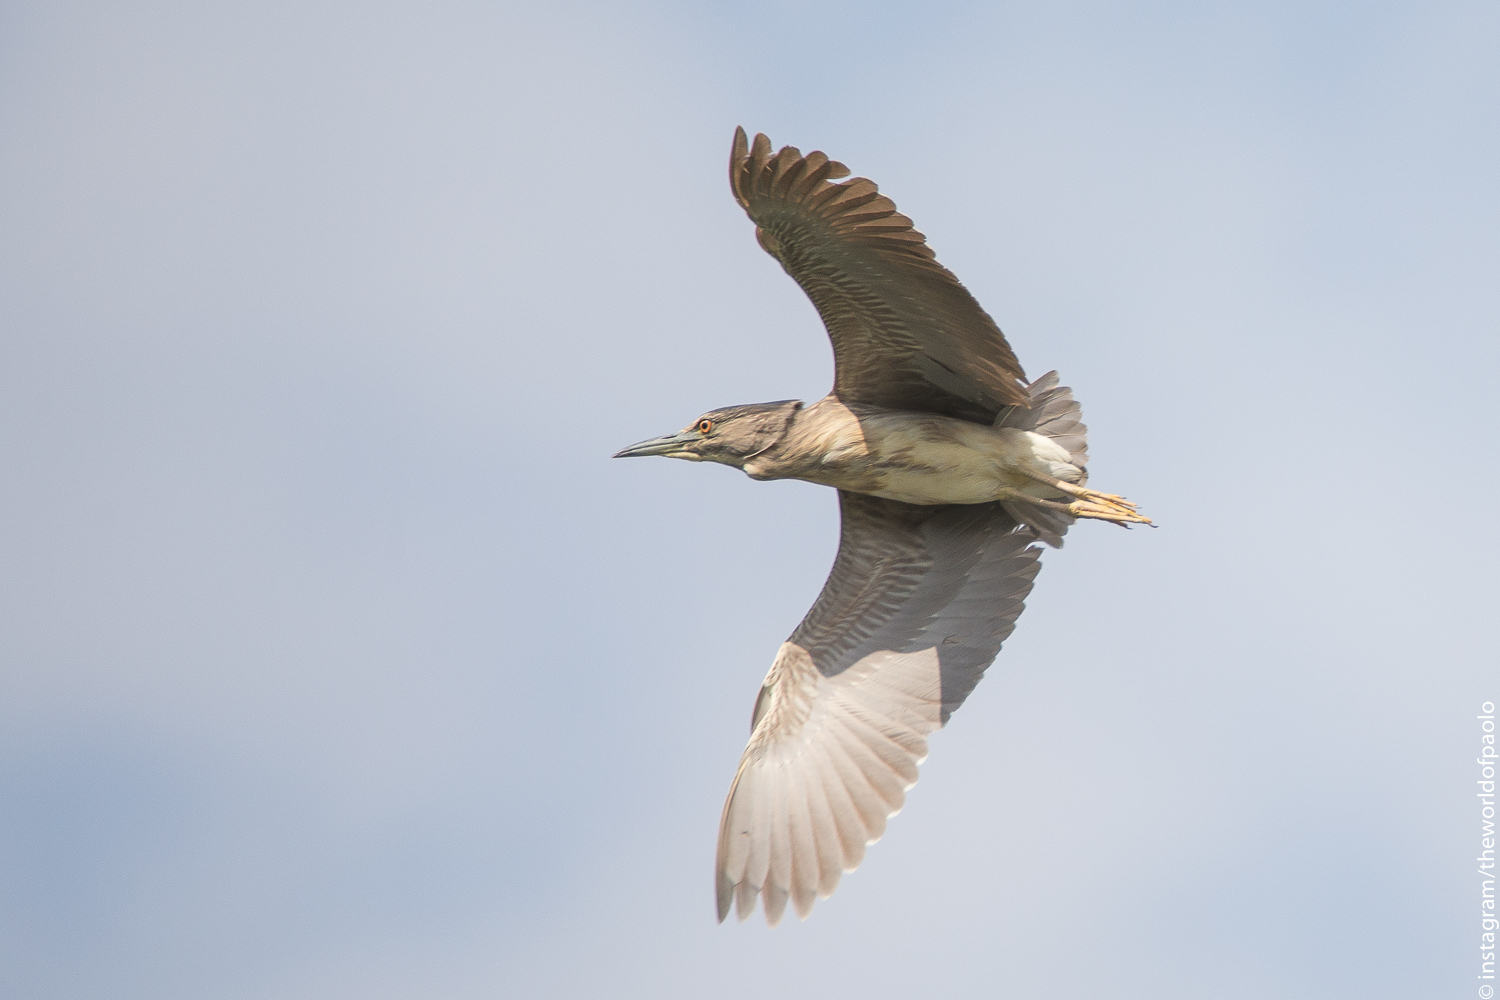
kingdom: Animalia
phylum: Chordata
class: Aves
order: Pelecaniformes
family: Ardeidae
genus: Nycticorax
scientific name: Nycticorax nycticorax
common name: Black-crowned night heron
